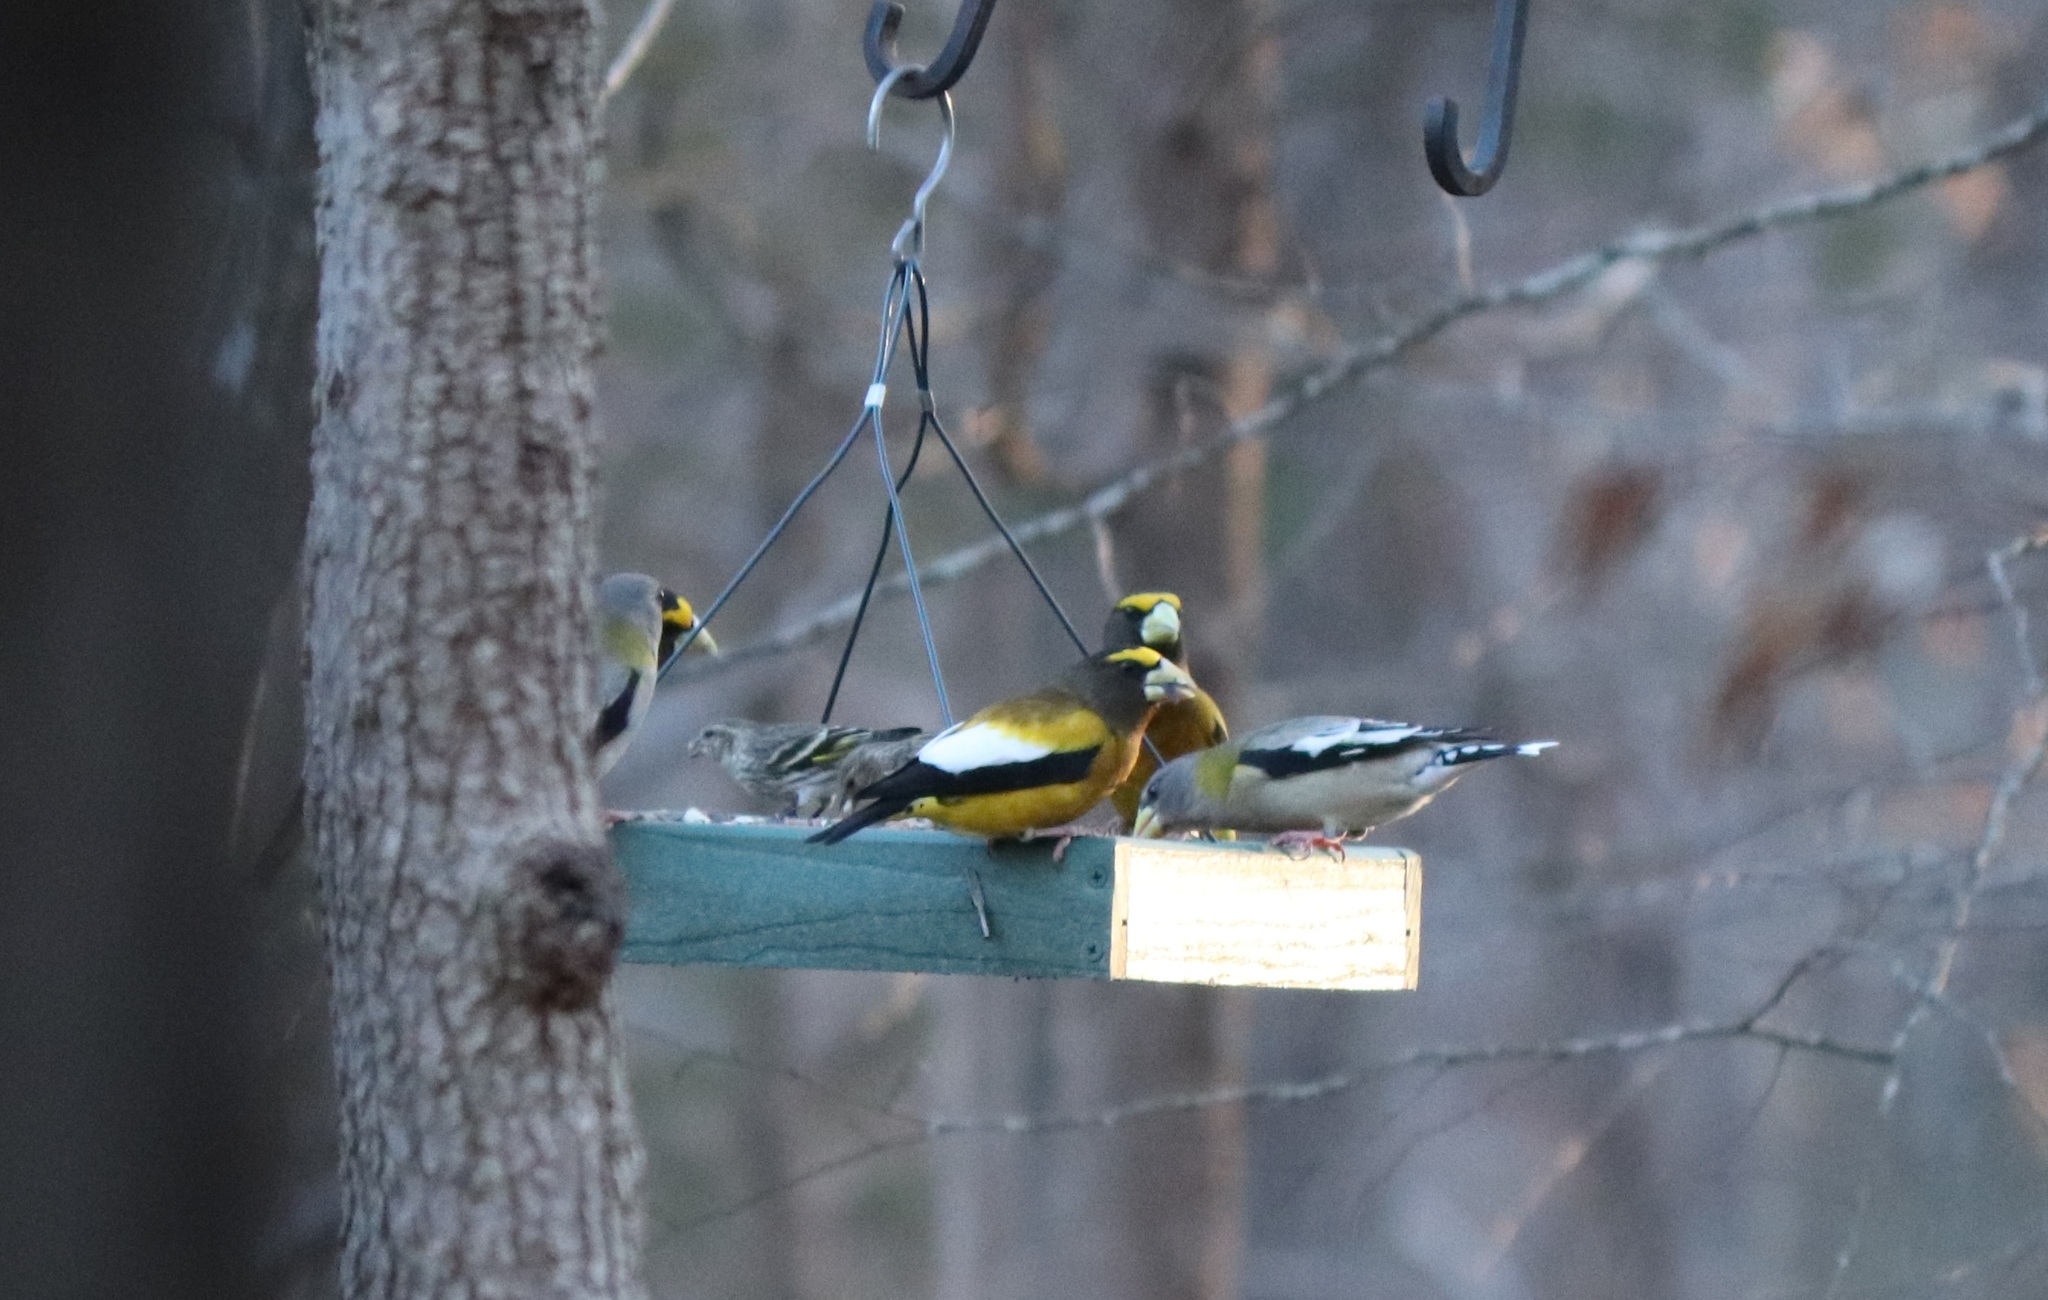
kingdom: Animalia
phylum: Chordata
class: Aves
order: Passeriformes
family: Fringillidae
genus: Hesperiphona
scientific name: Hesperiphona vespertina
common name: Evening grosbeak
